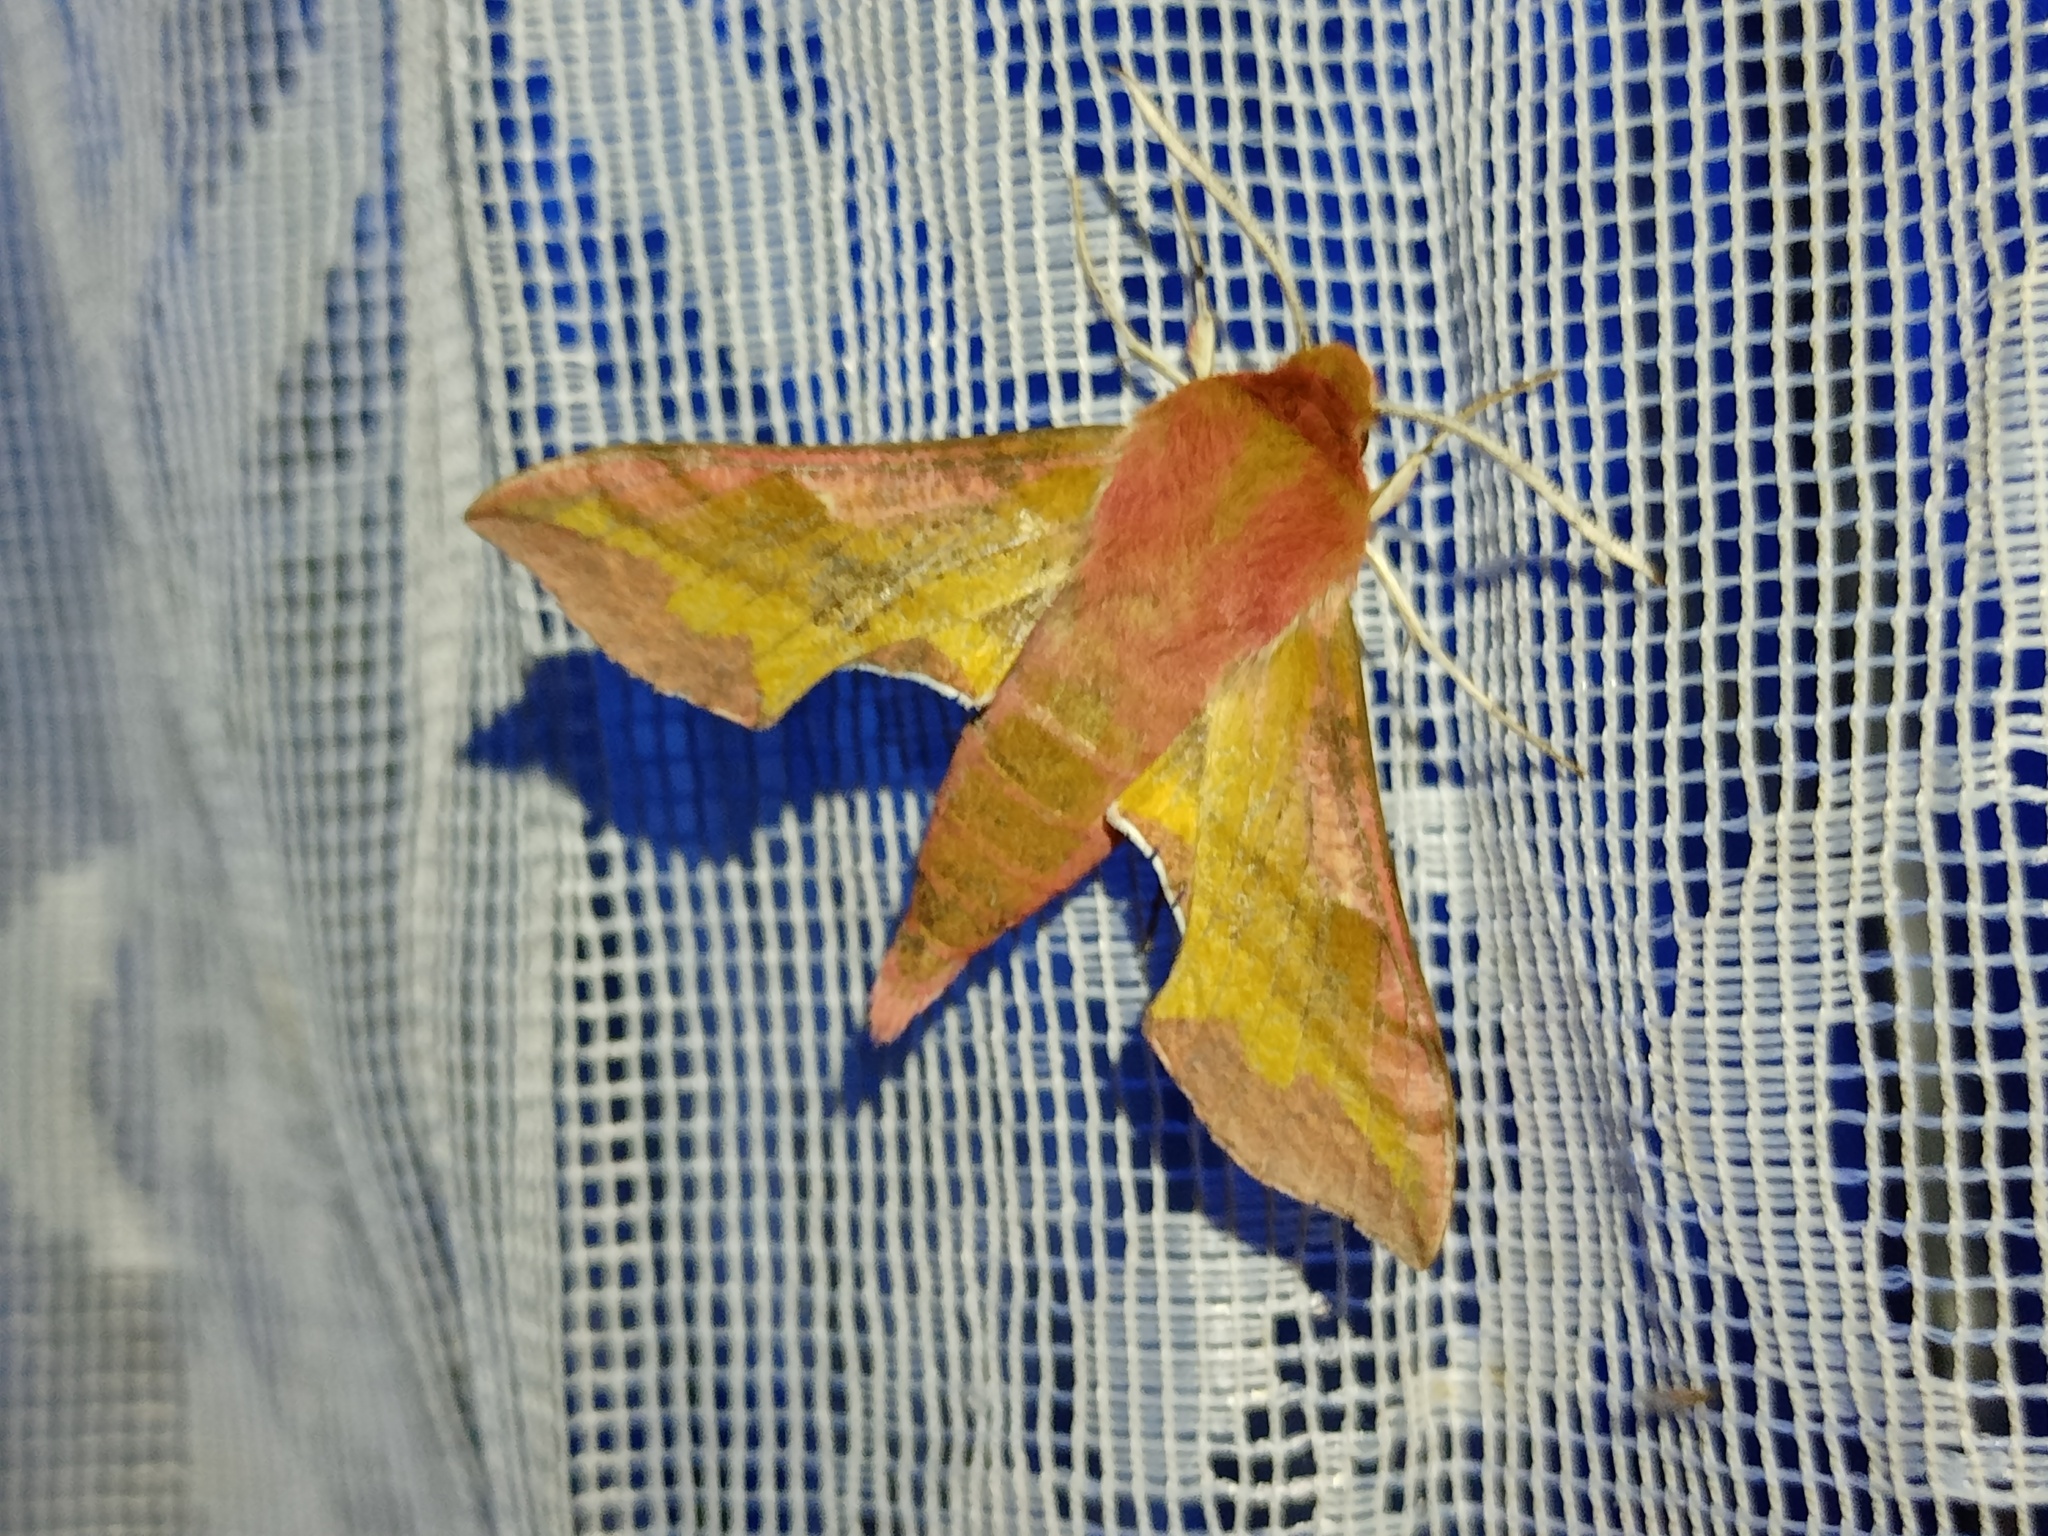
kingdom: Animalia
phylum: Arthropoda
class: Insecta
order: Lepidoptera
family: Sphingidae
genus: Deilephila
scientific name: Deilephila porcellus
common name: Small elephant hawk-moth
